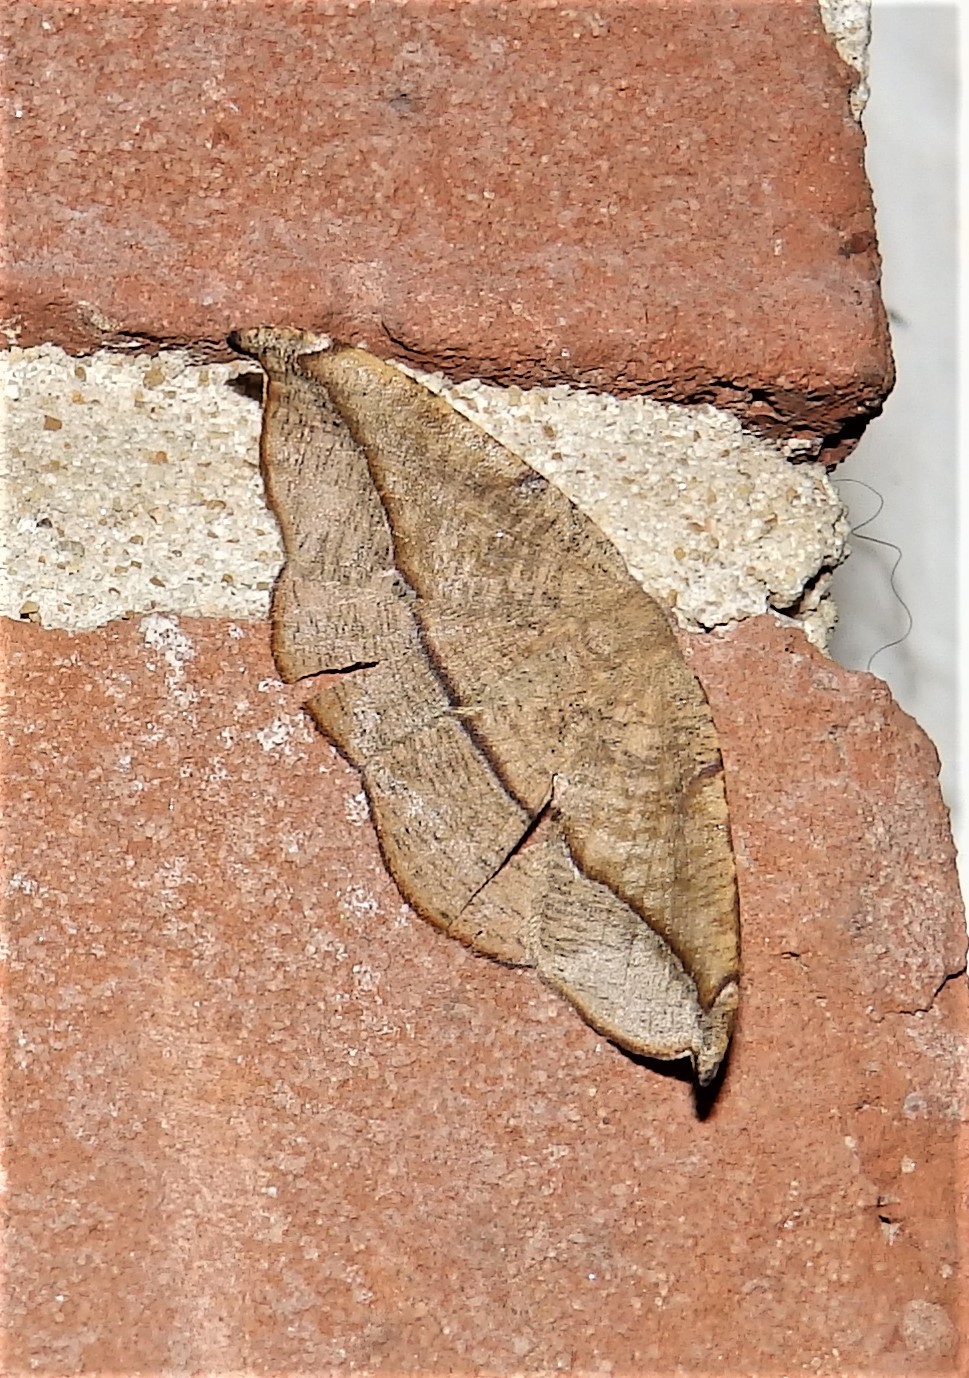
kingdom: Animalia
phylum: Arthropoda
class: Insecta
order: Lepidoptera
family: Geometridae
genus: Patalene
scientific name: Patalene olyzonaria
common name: Juniper geometer moth
